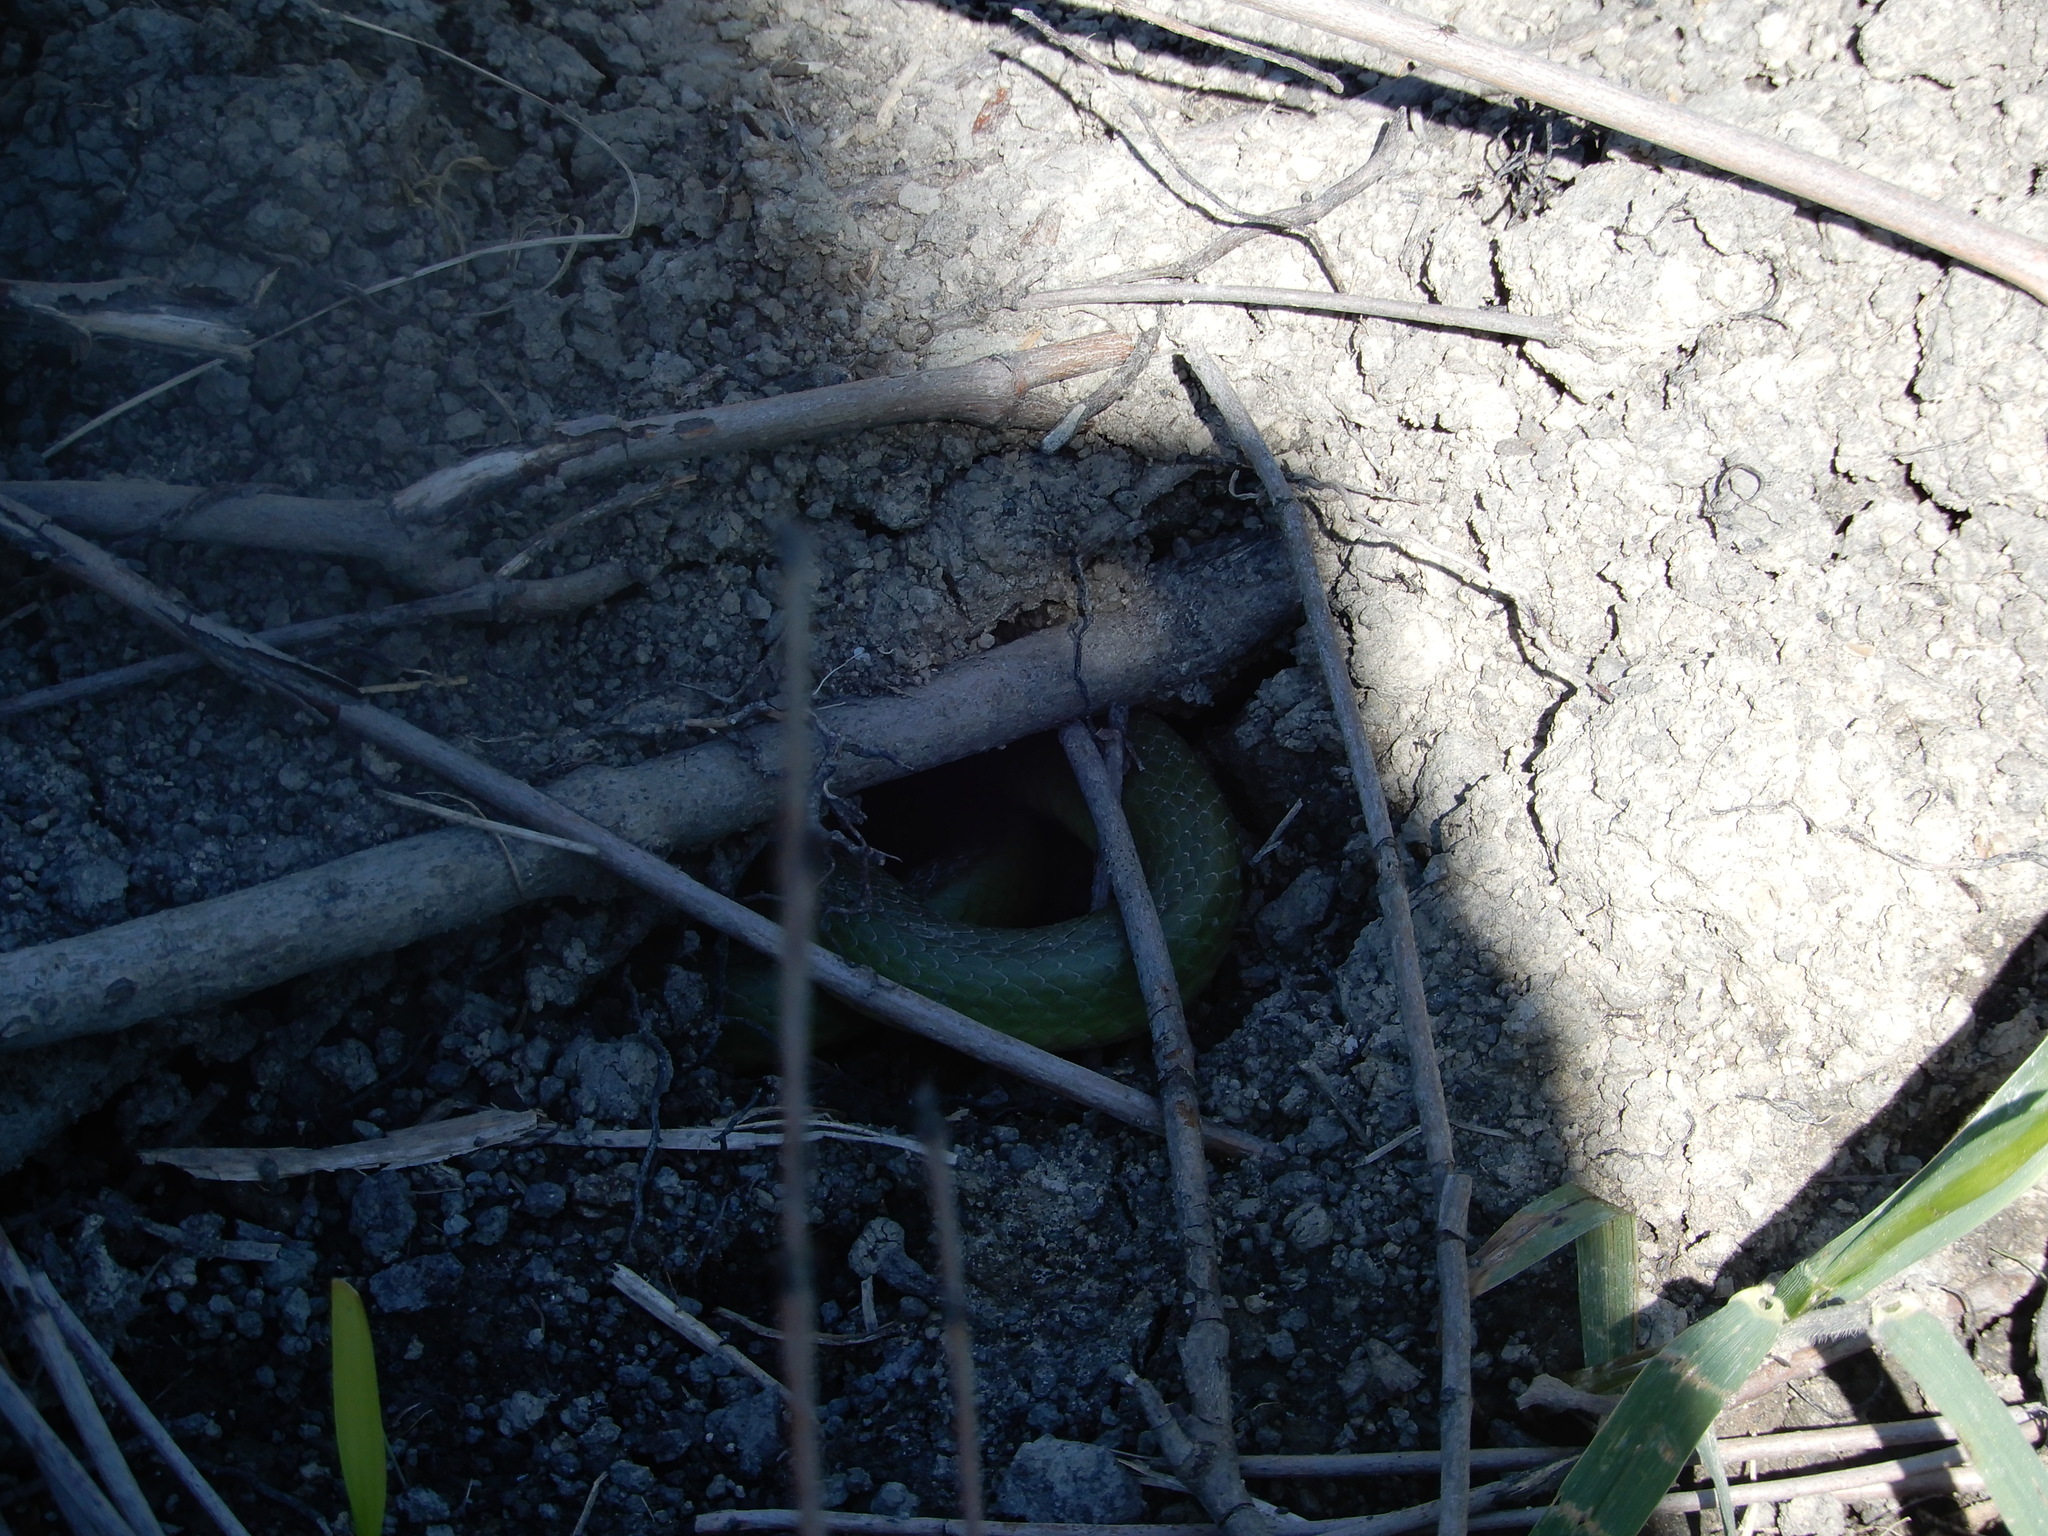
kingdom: Animalia
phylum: Chordata
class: Squamata
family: Colubridae
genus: Opheodrys
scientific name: Opheodrys vernalis
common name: Smooth green snake
